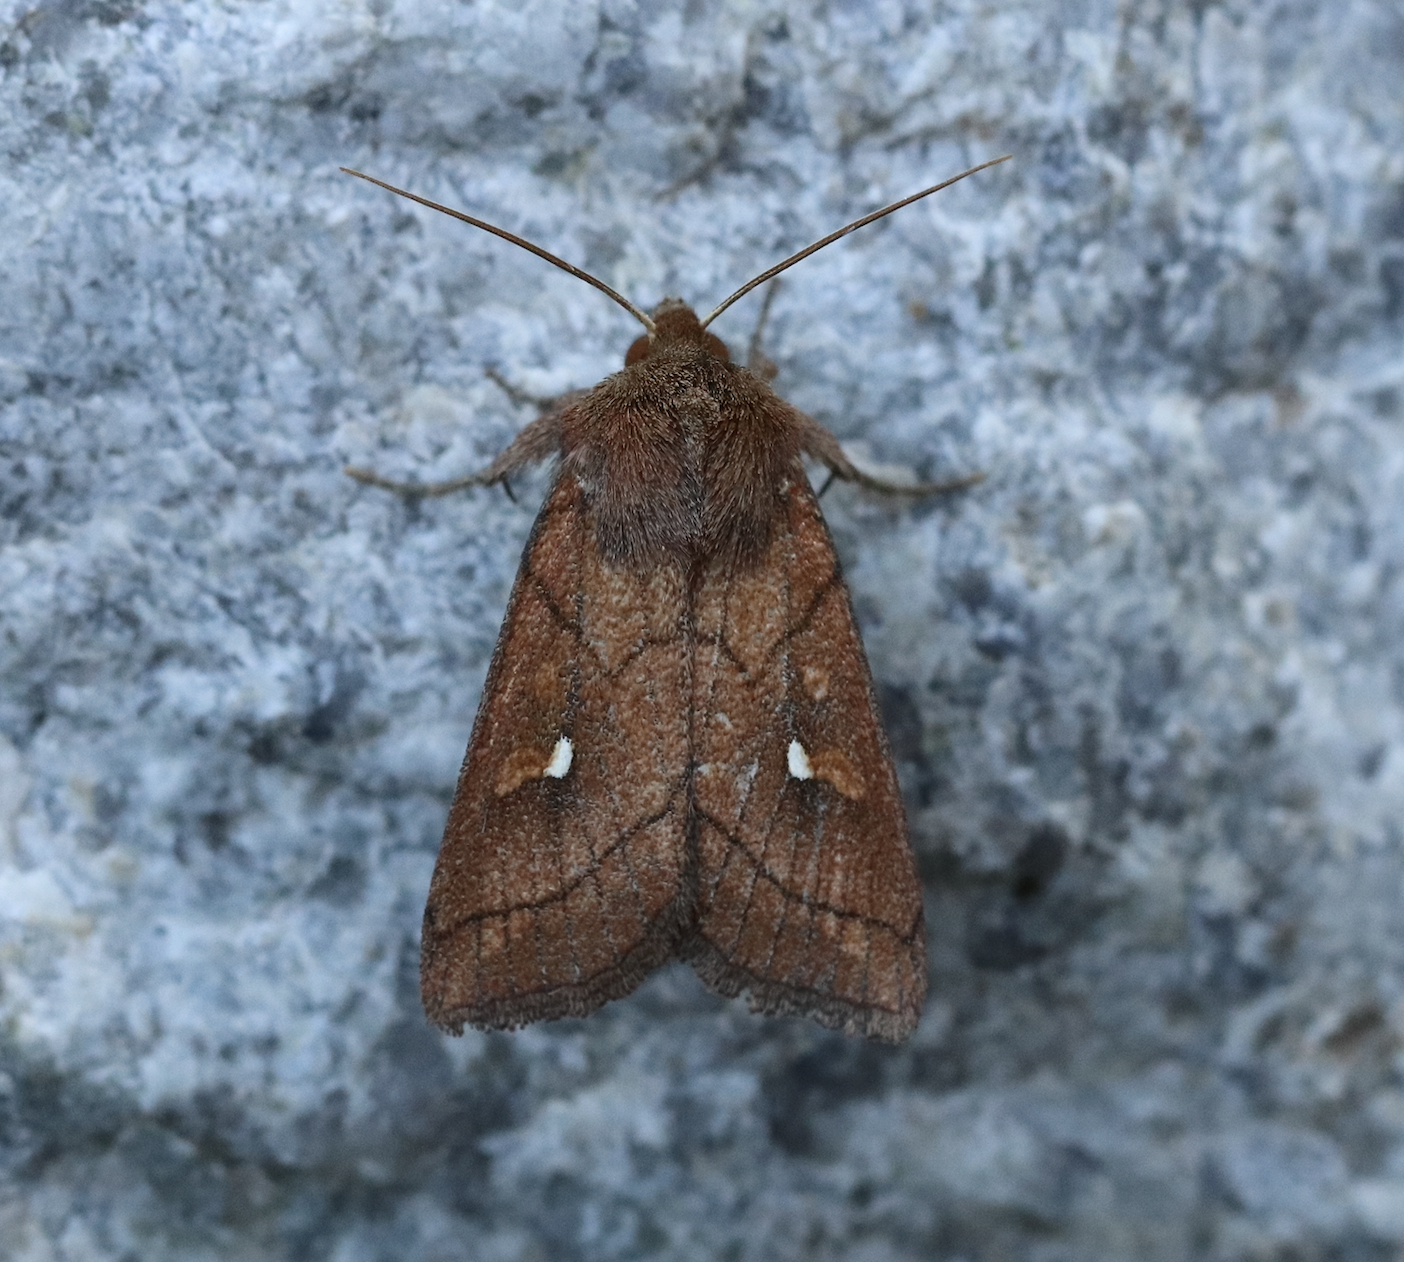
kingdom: Animalia
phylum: Arthropoda
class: Insecta
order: Lepidoptera
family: Noctuidae
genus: Mythimna
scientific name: Mythimna conigera
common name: Brown-line bright-eye
